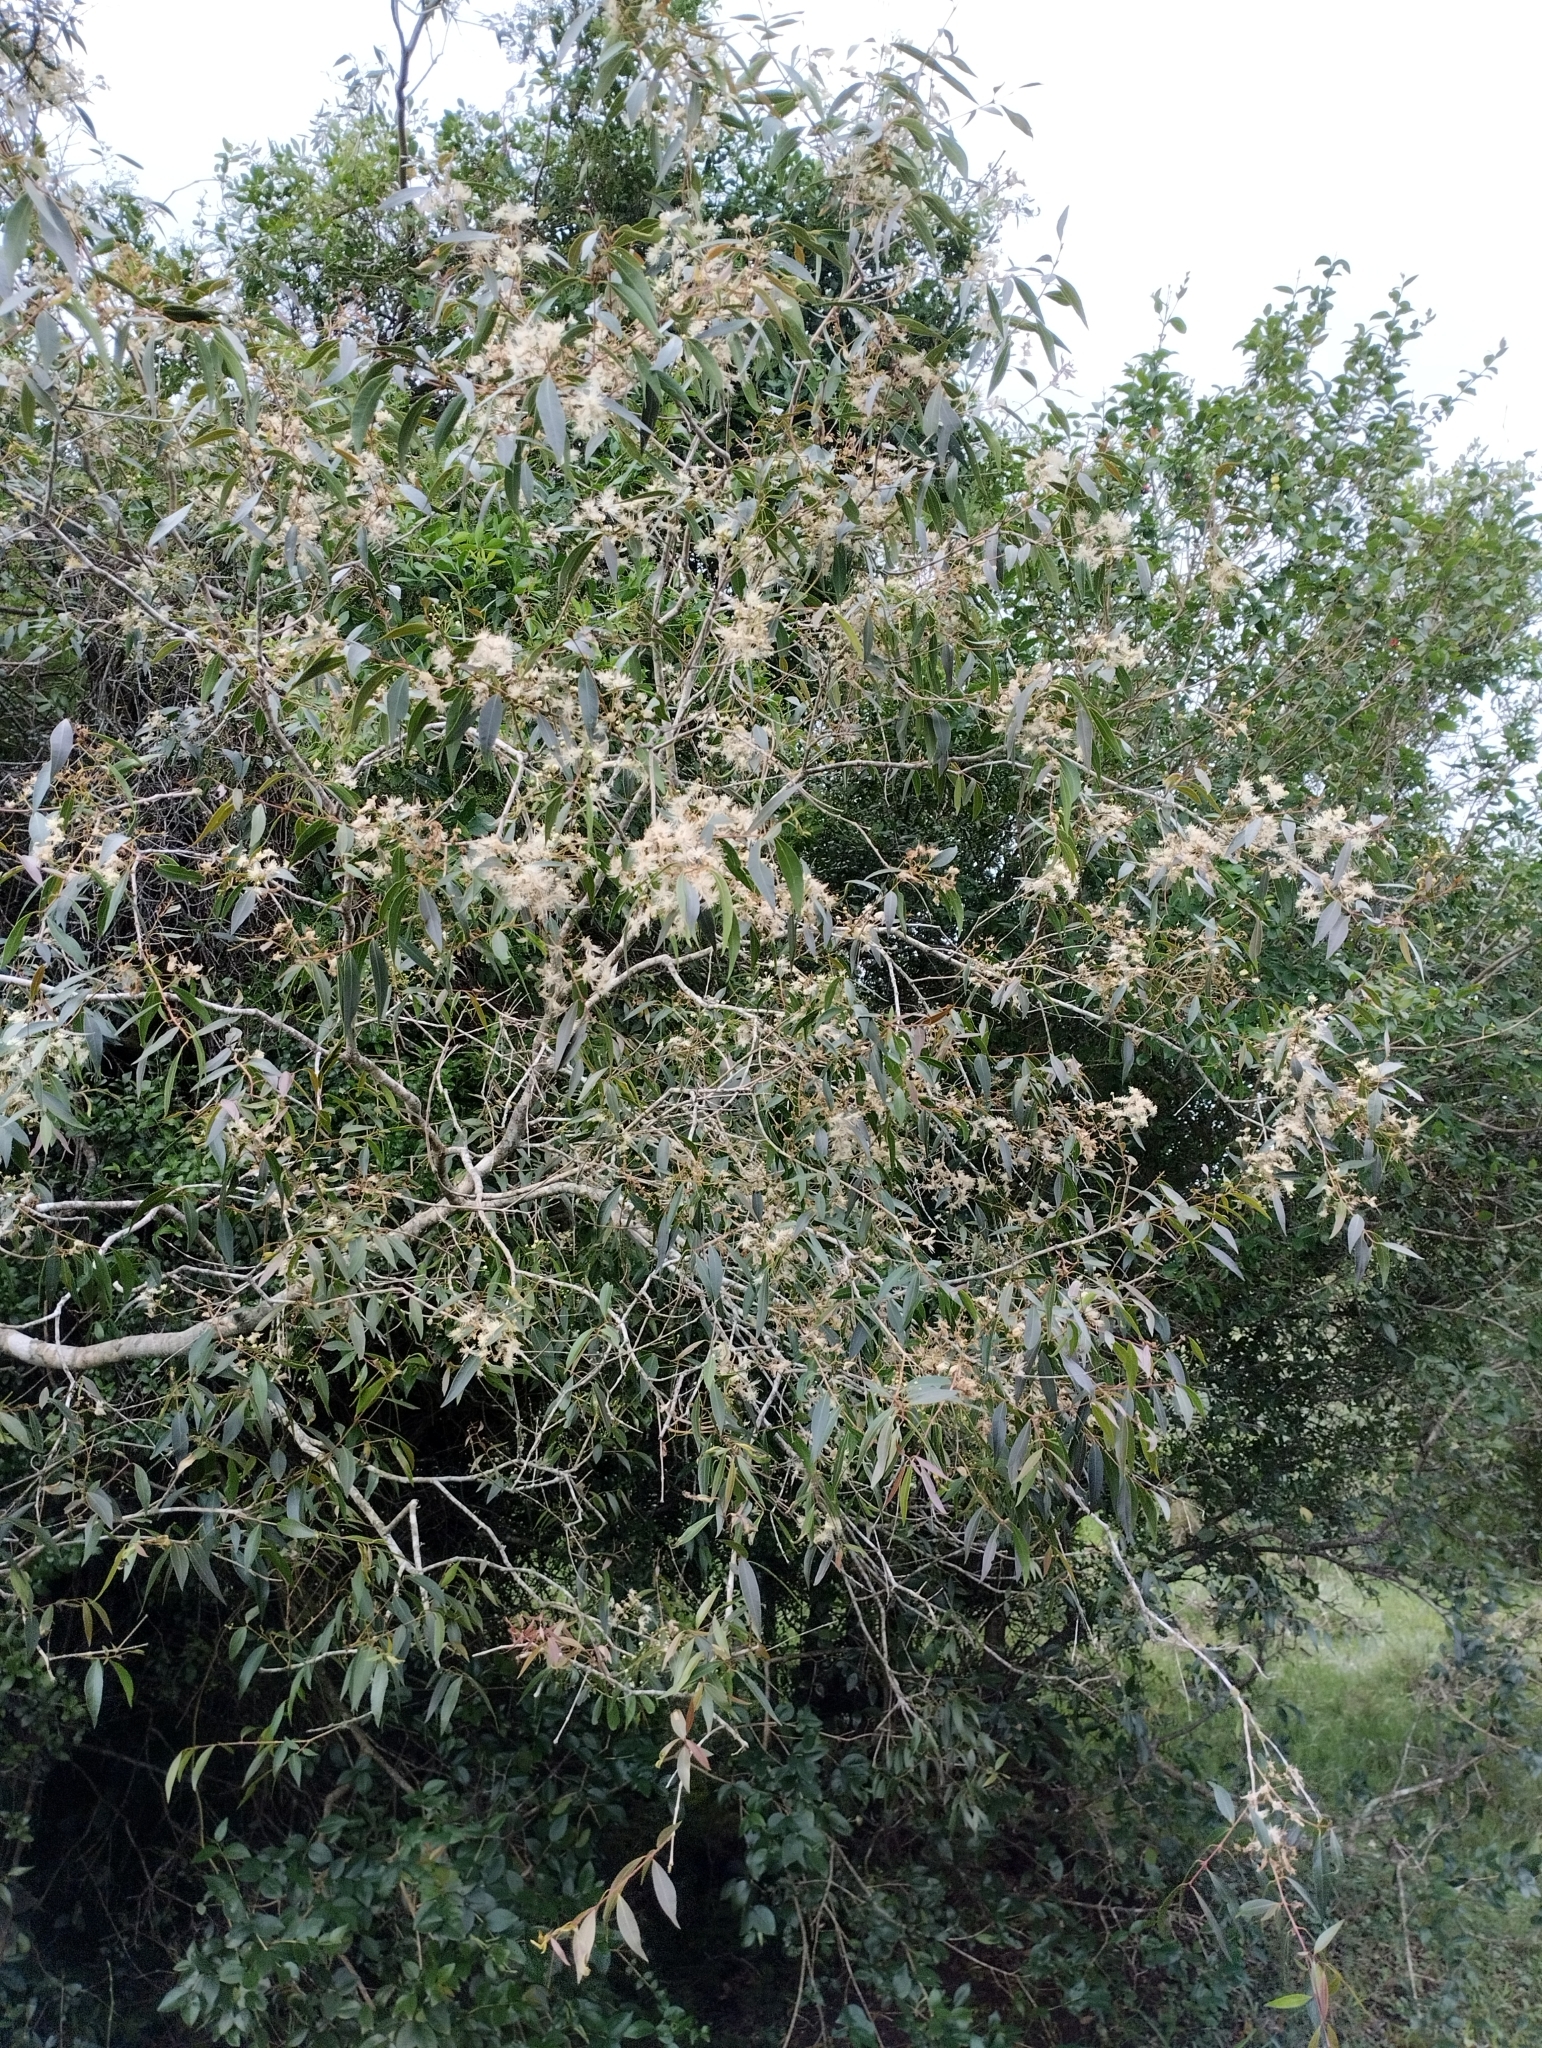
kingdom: Plantae
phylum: Tracheophyta
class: Magnoliopsida
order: Myrtales
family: Myrtaceae
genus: Blepharocalyx
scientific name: Blepharocalyx salicifolius
